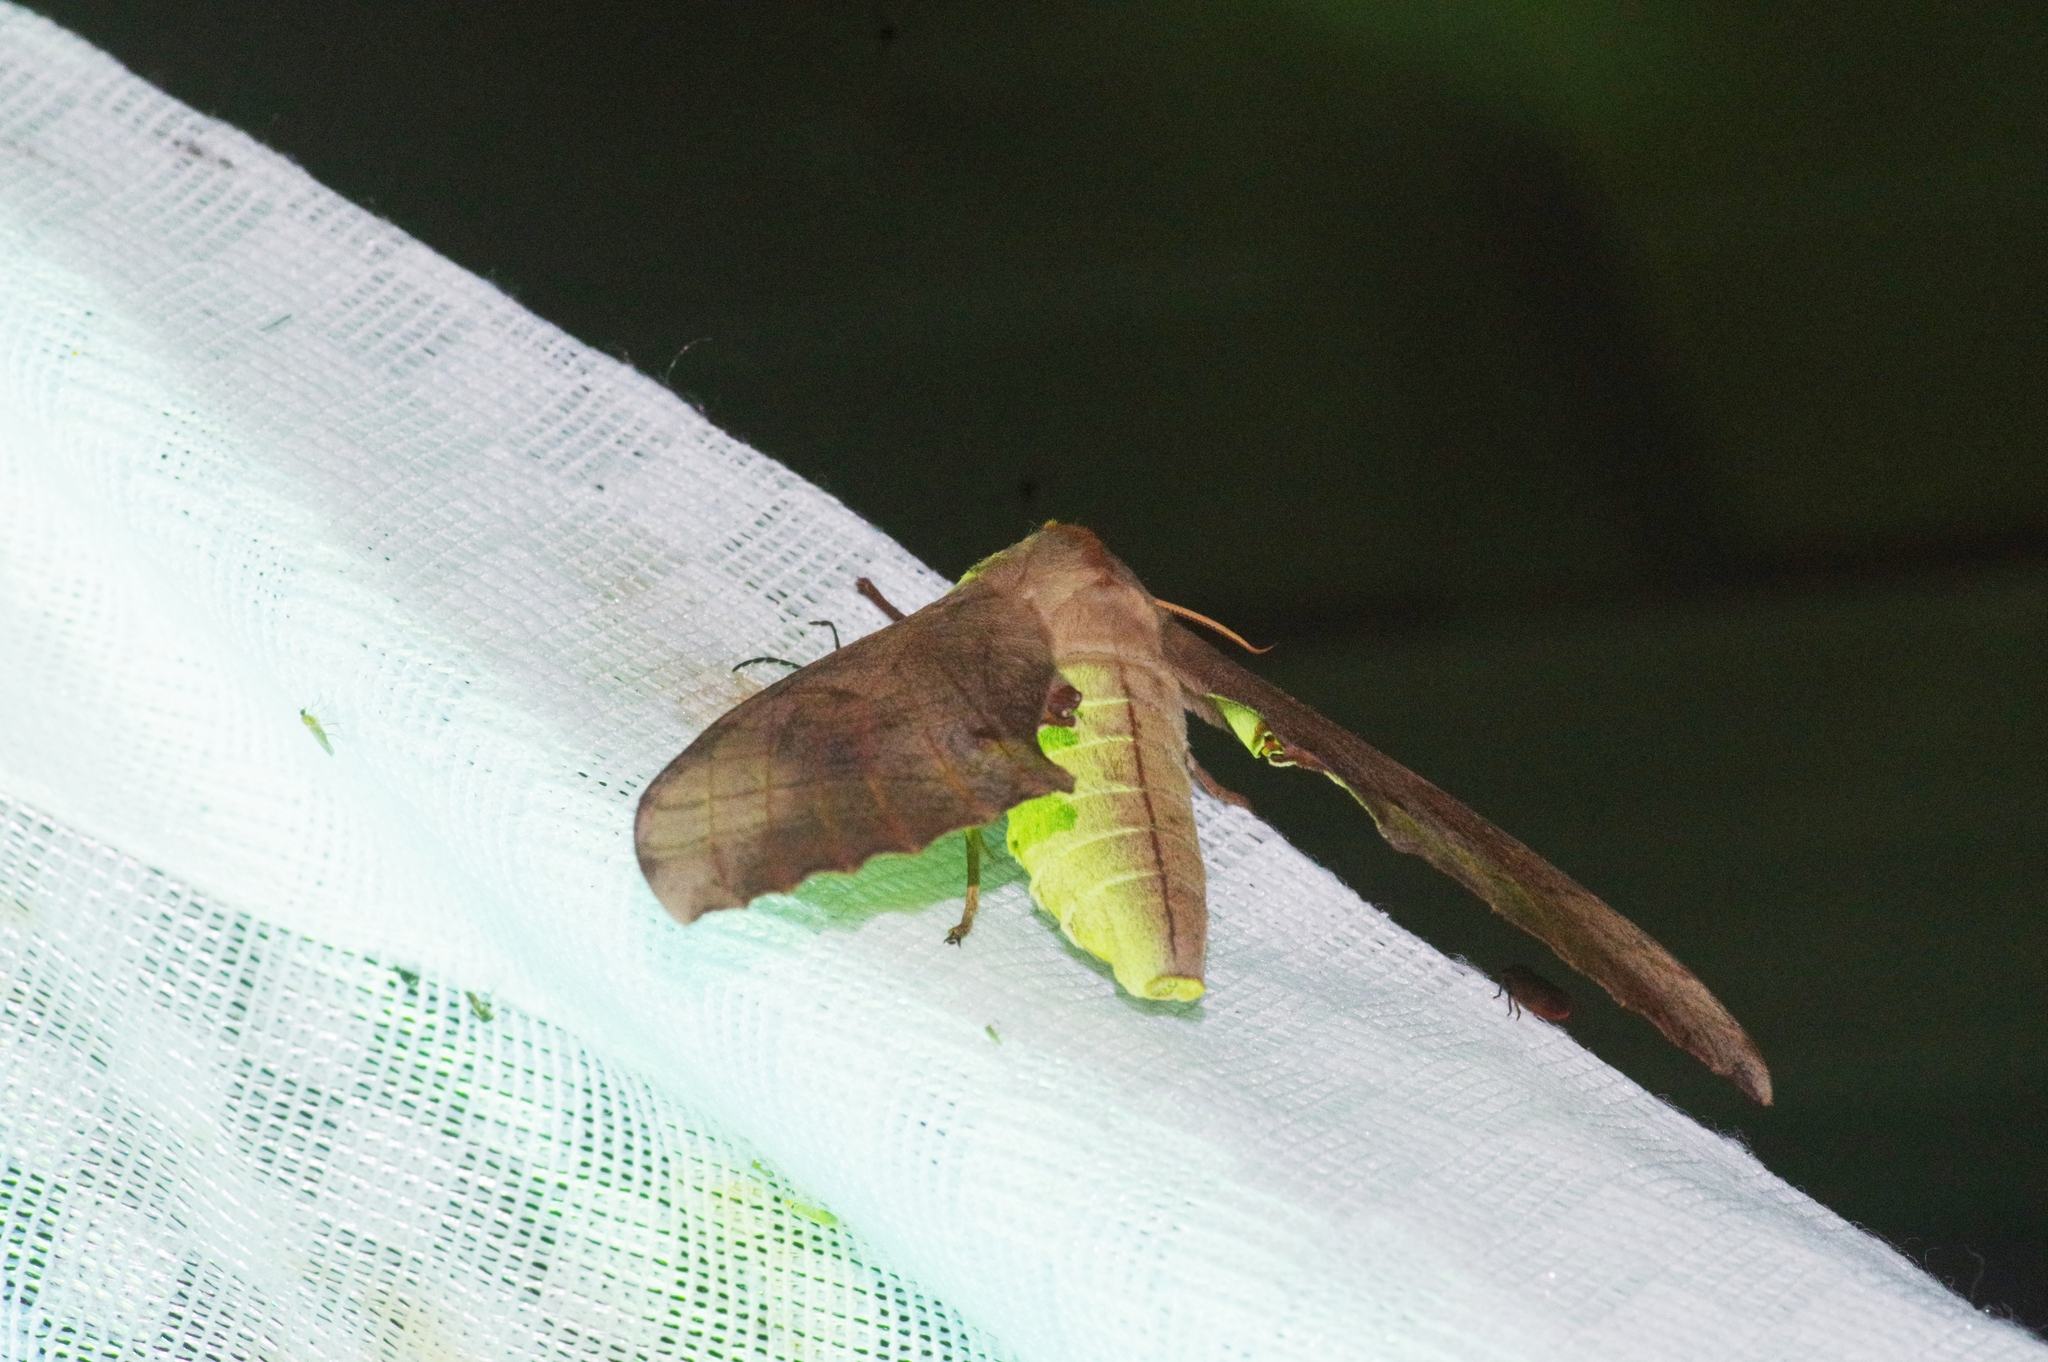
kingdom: Animalia
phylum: Arthropoda
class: Insecta
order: Lepidoptera
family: Sphingidae
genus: Marumba
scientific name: Marumba sperchius
